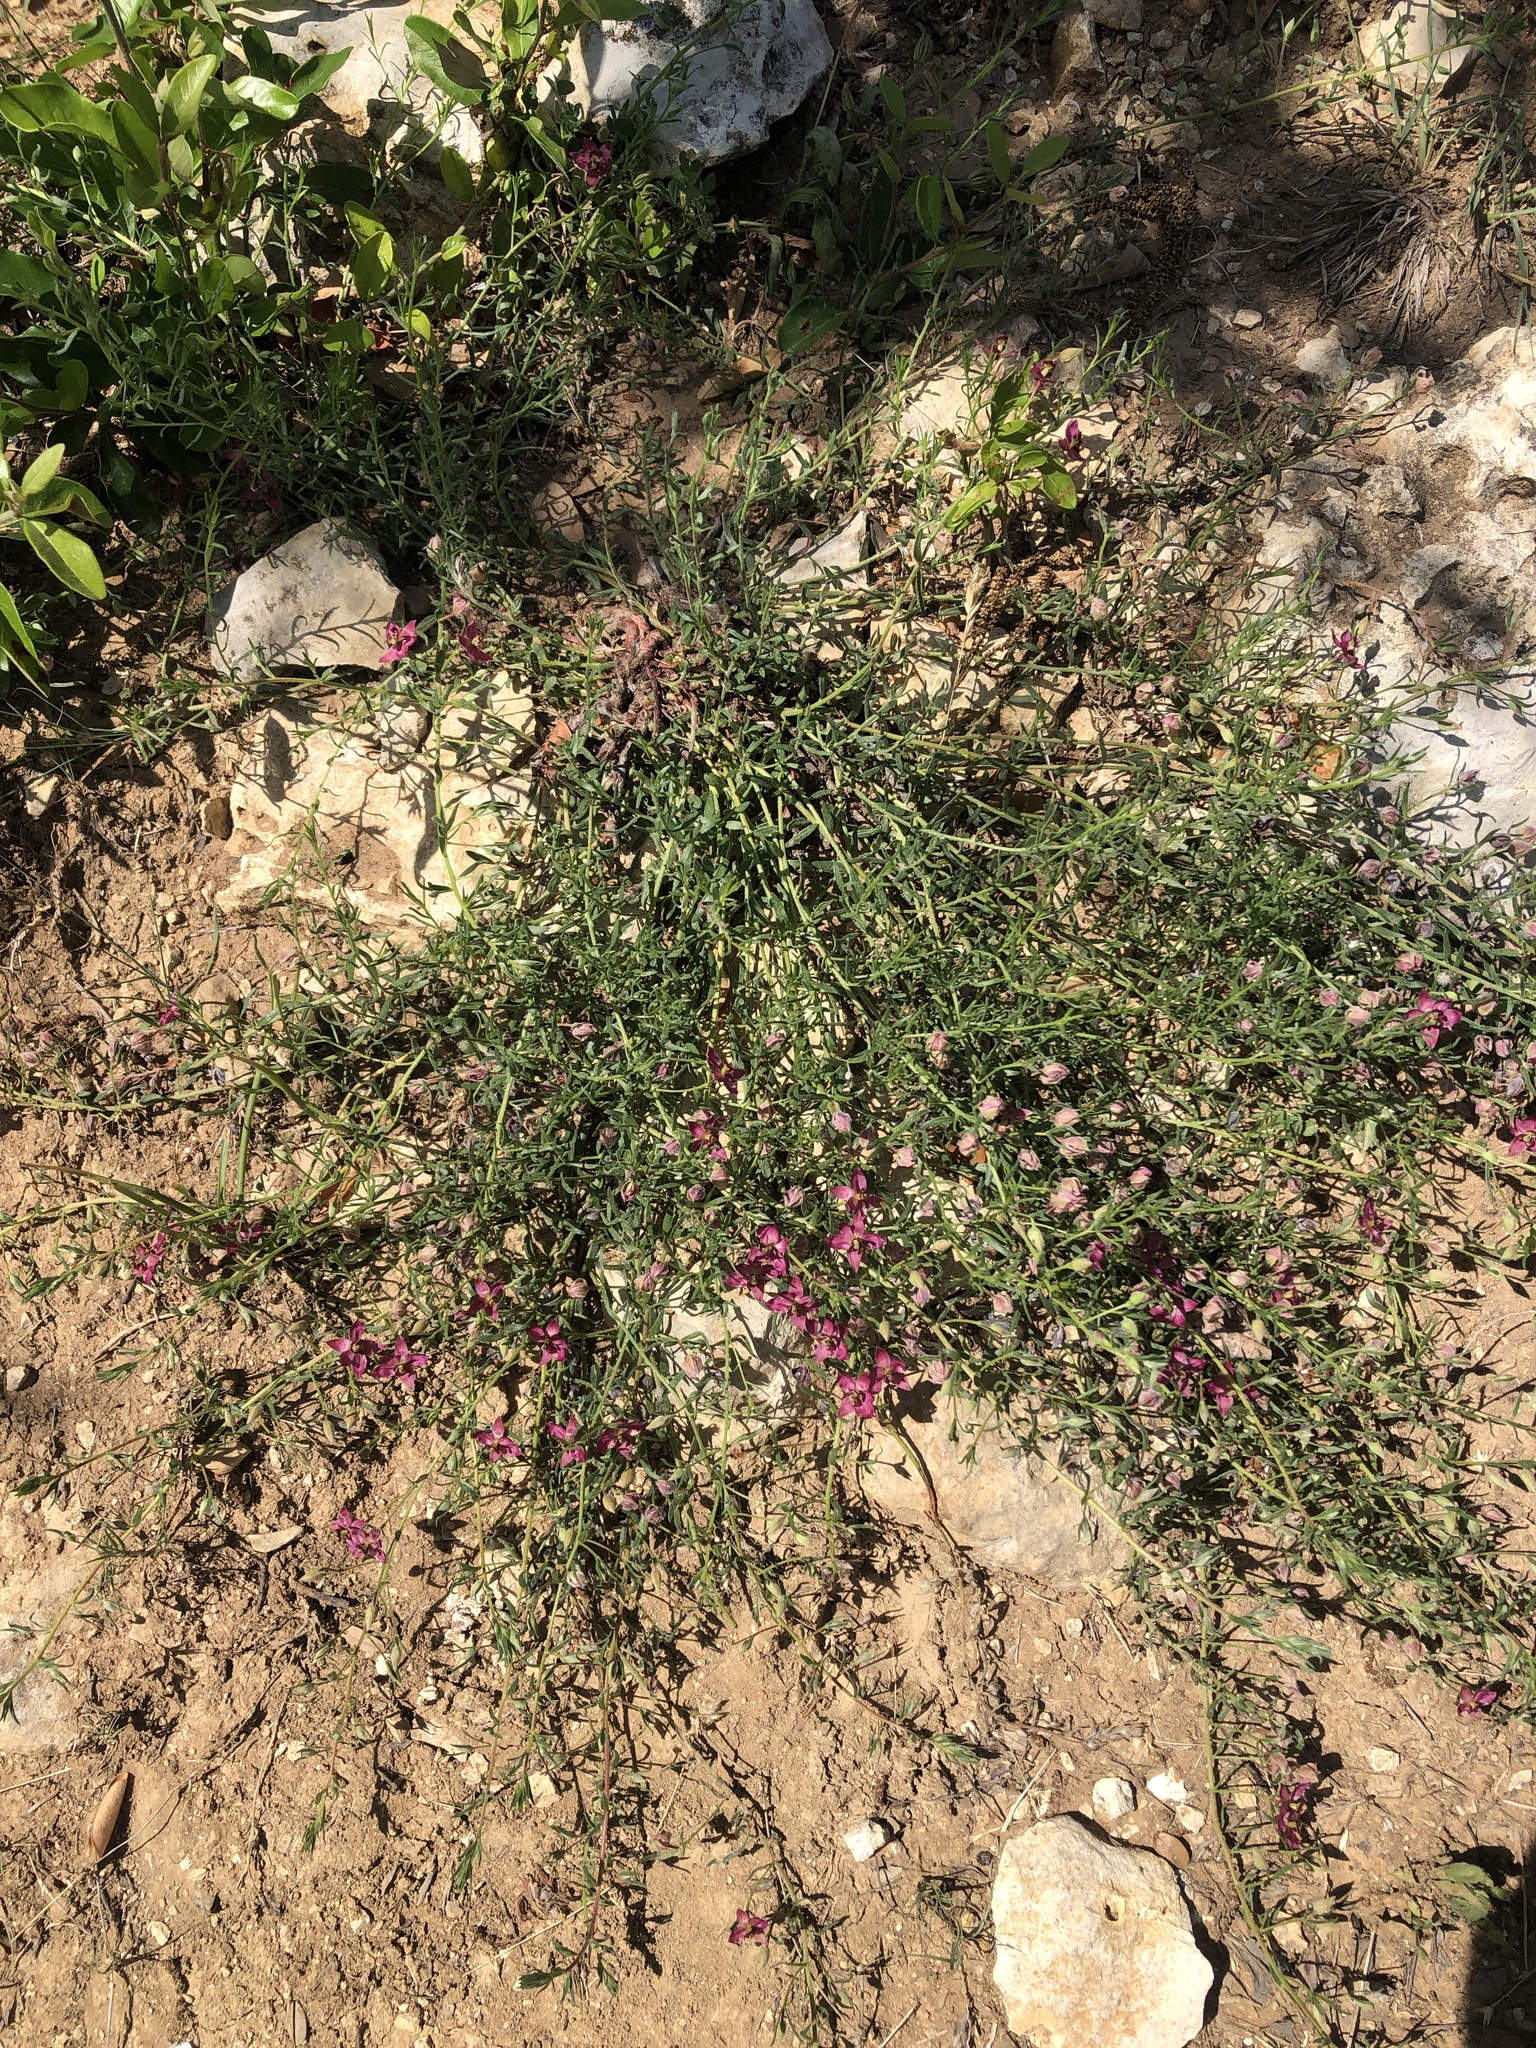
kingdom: Plantae
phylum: Tracheophyta
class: Magnoliopsida
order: Zygophyllales
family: Krameriaceae
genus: Krameria
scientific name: Krameria lanceolata
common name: Ratany
